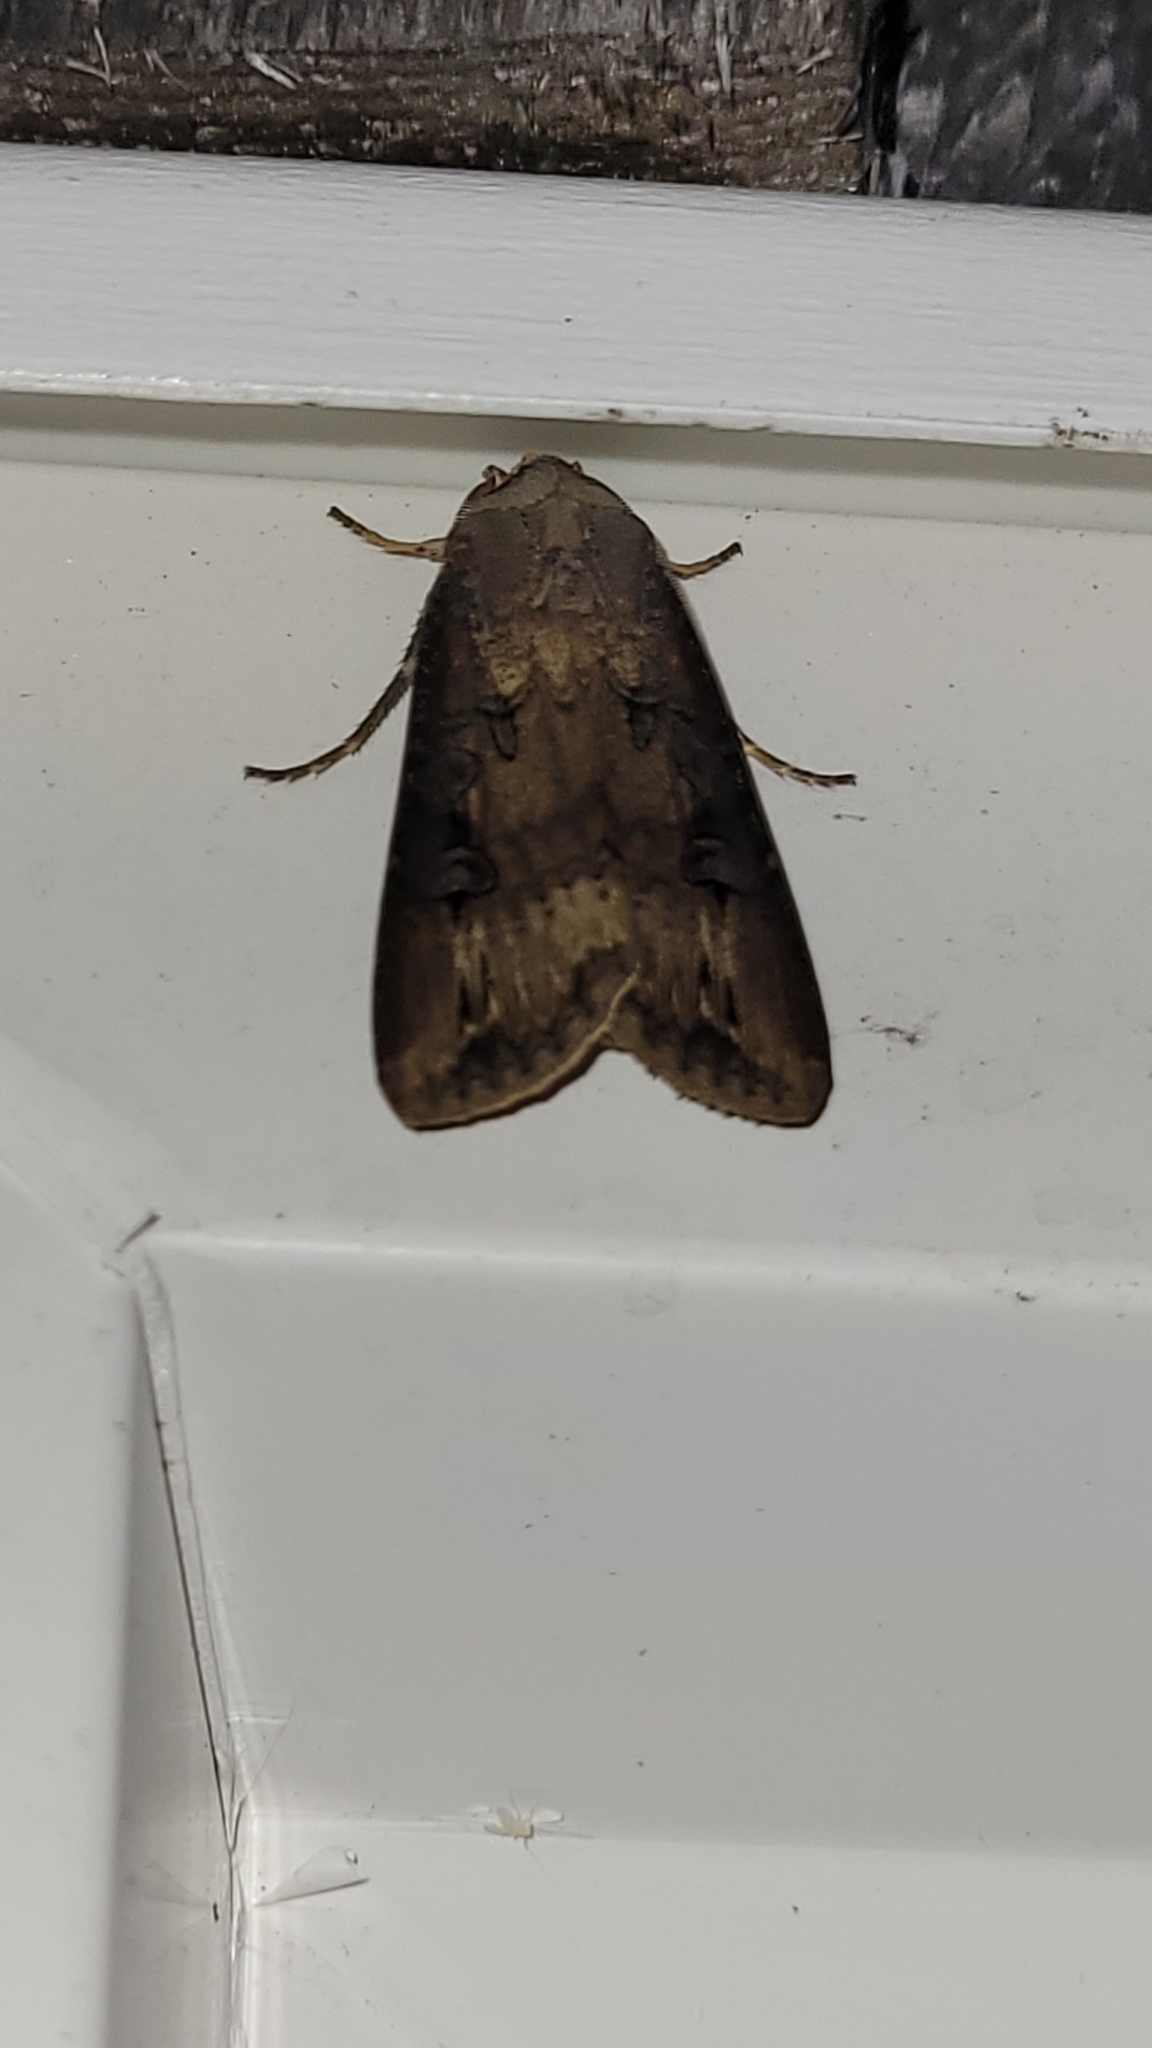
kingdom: Animalia
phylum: Arthropoda
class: Insecta
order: Lepidoptera
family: Noctuidae
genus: Agrotis
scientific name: Agrotis ipsilon
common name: Dark sword-grass
